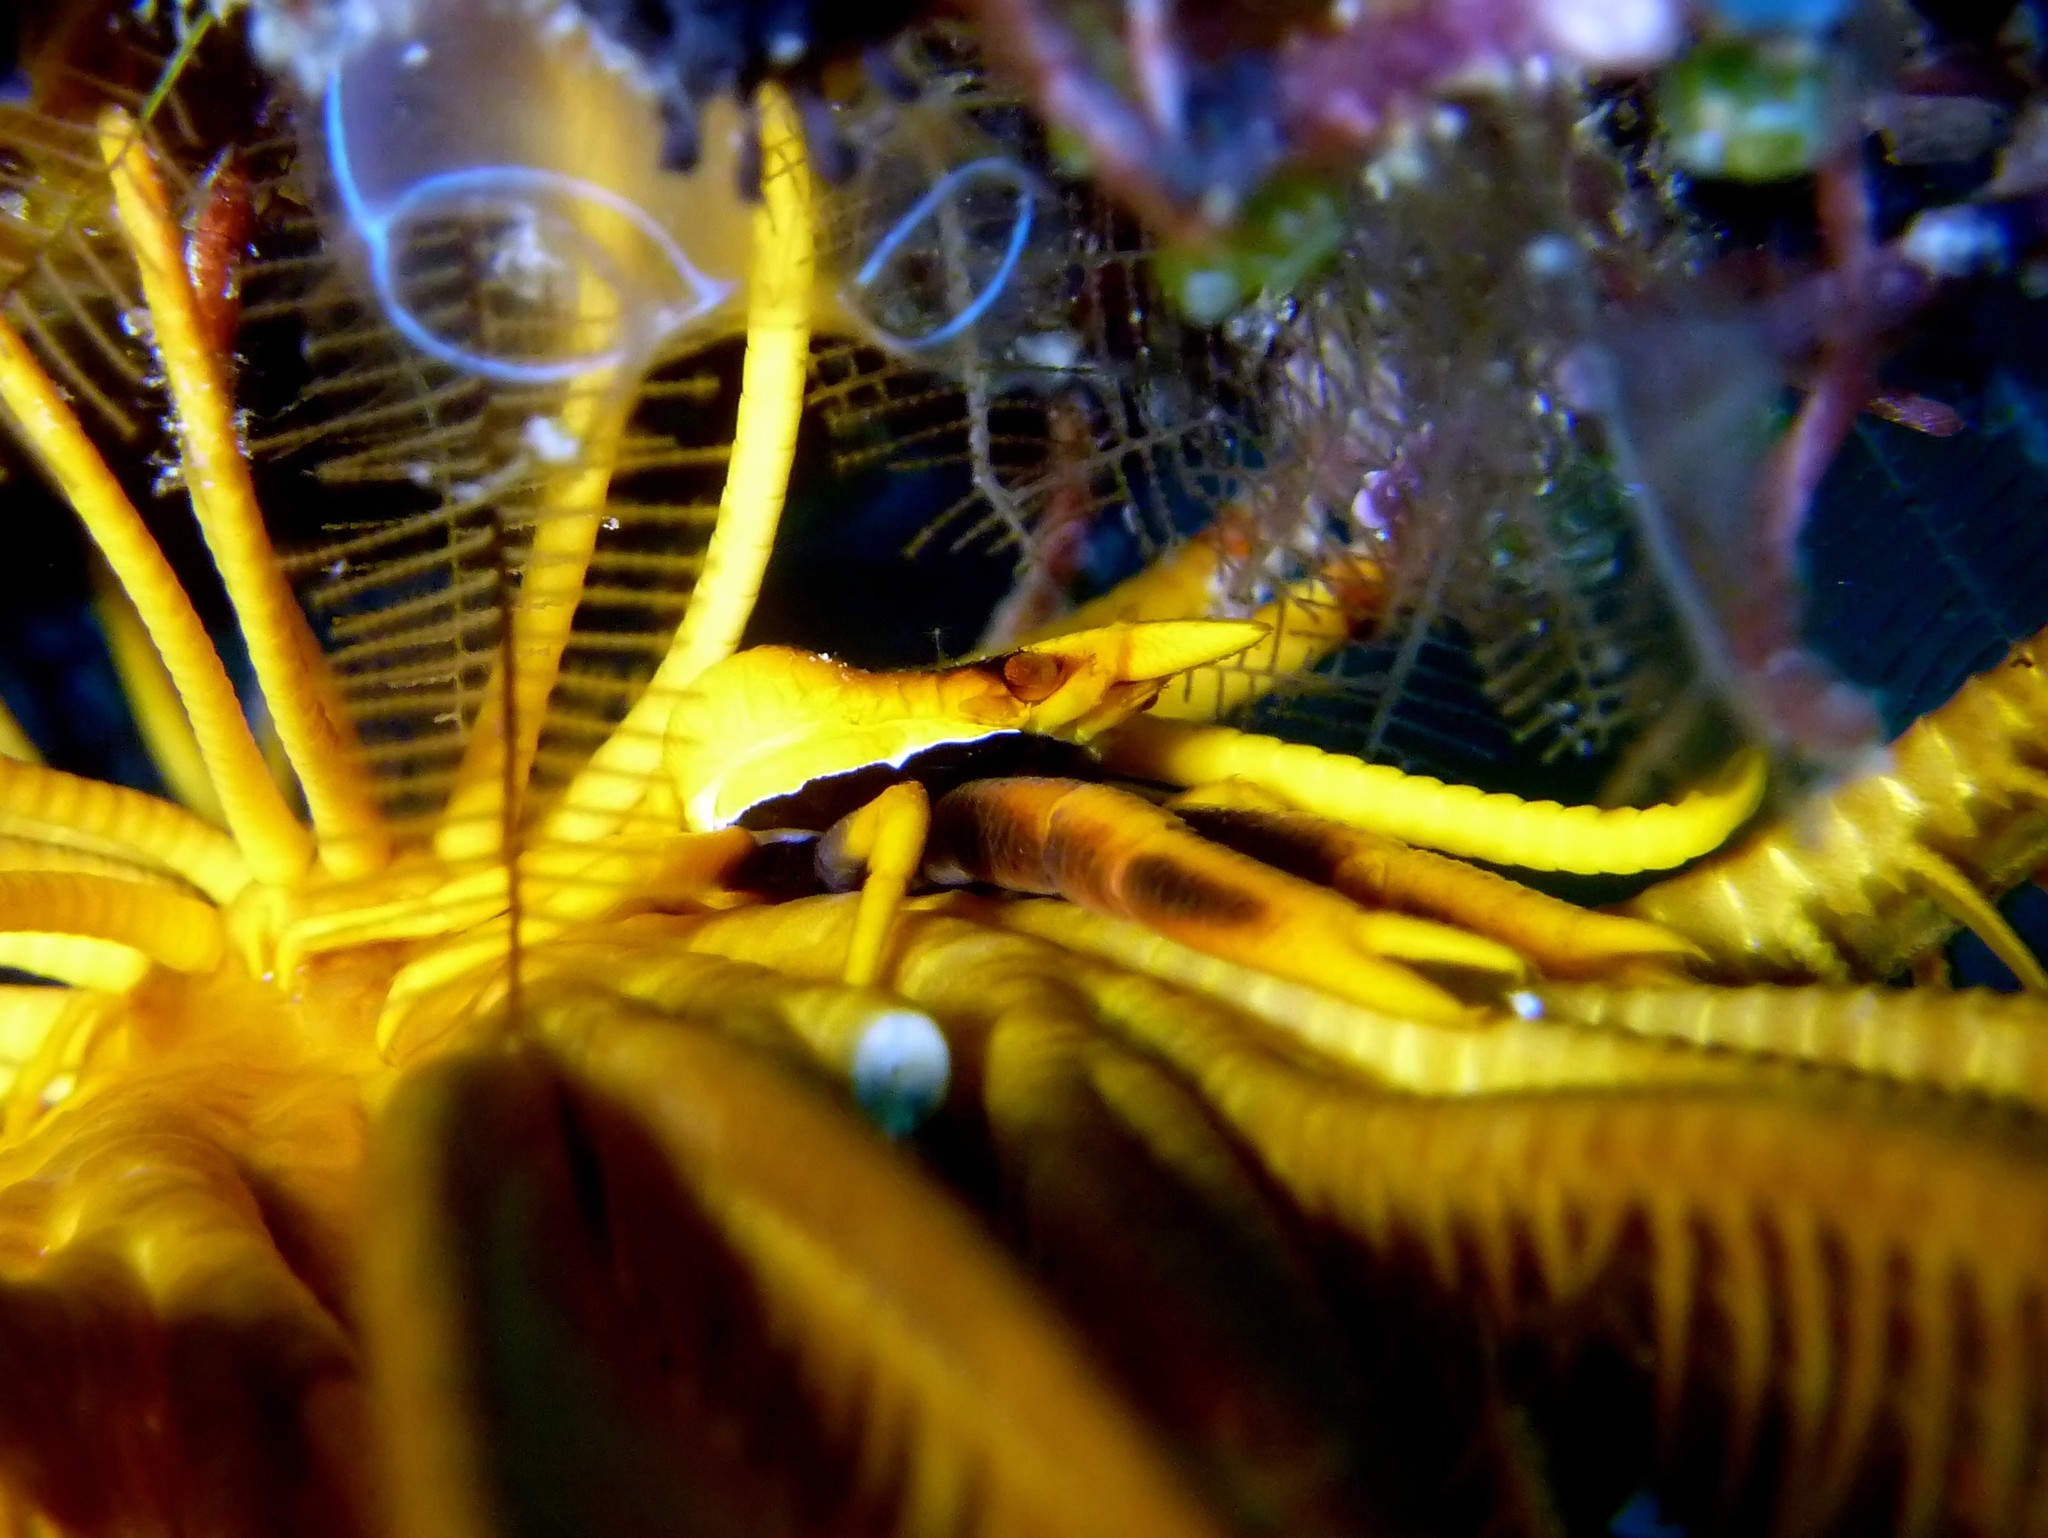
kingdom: Animalia
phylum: Arthropoda
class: Malacostraca
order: Decapoda
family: Galatheidae
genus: Allogalathea
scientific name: Allogalathea babai
